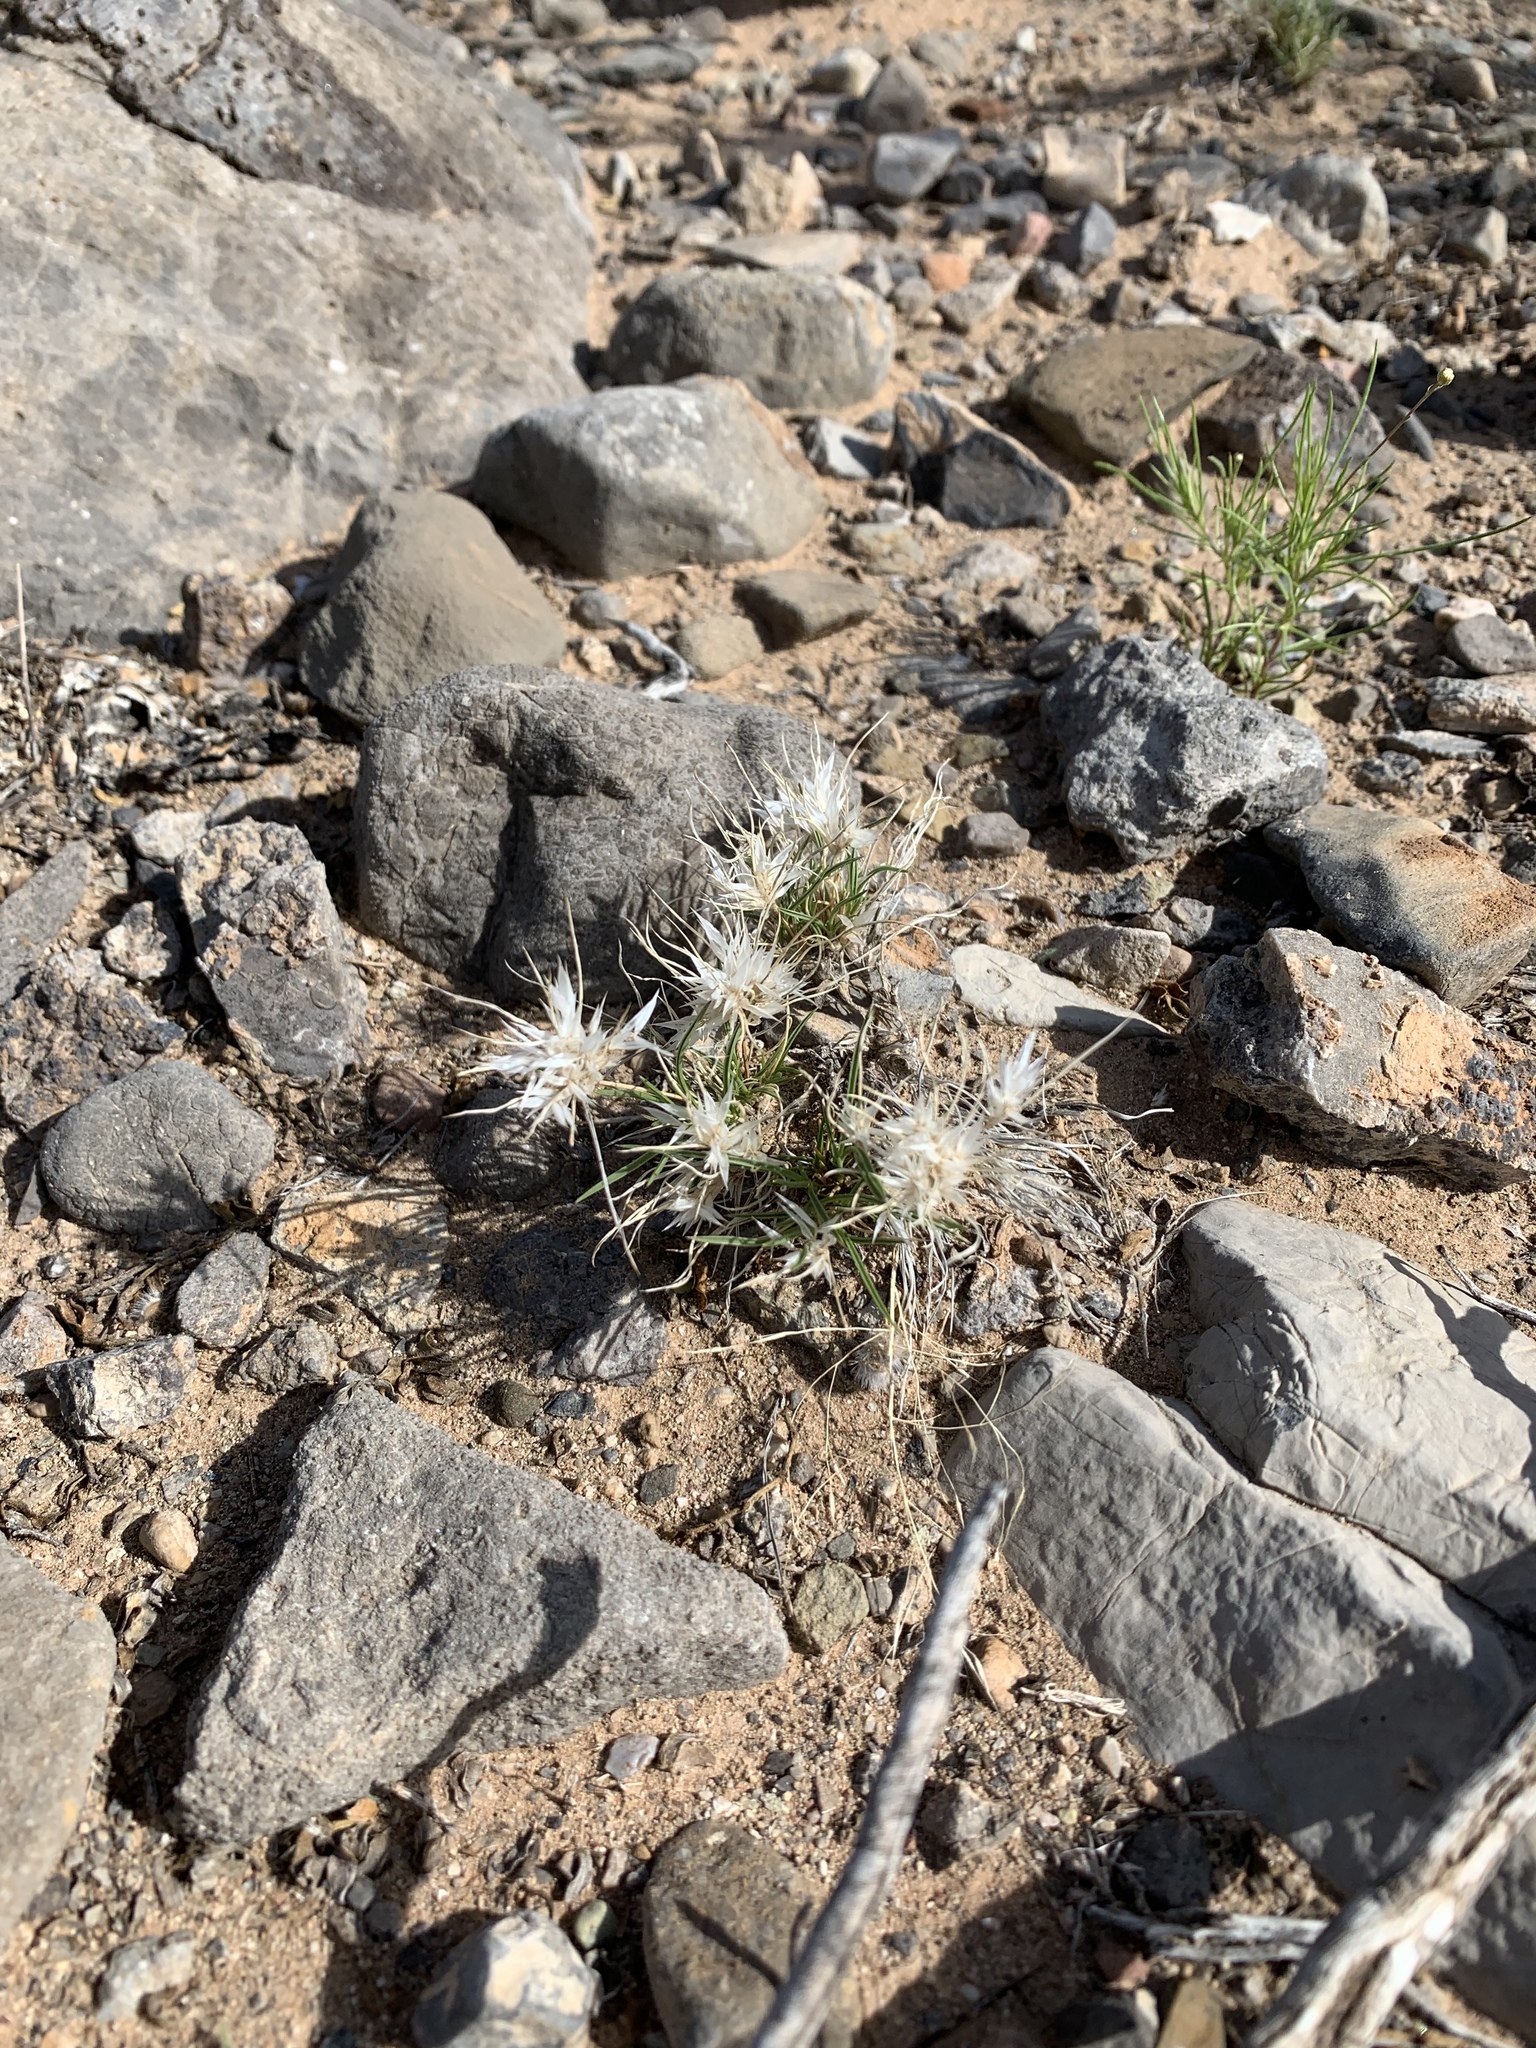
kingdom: Plantae
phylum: Tracheophyta
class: Liliopsida
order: Poales
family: Poaceae
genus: Dasyochloa
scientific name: Dasyochloa pulchella
